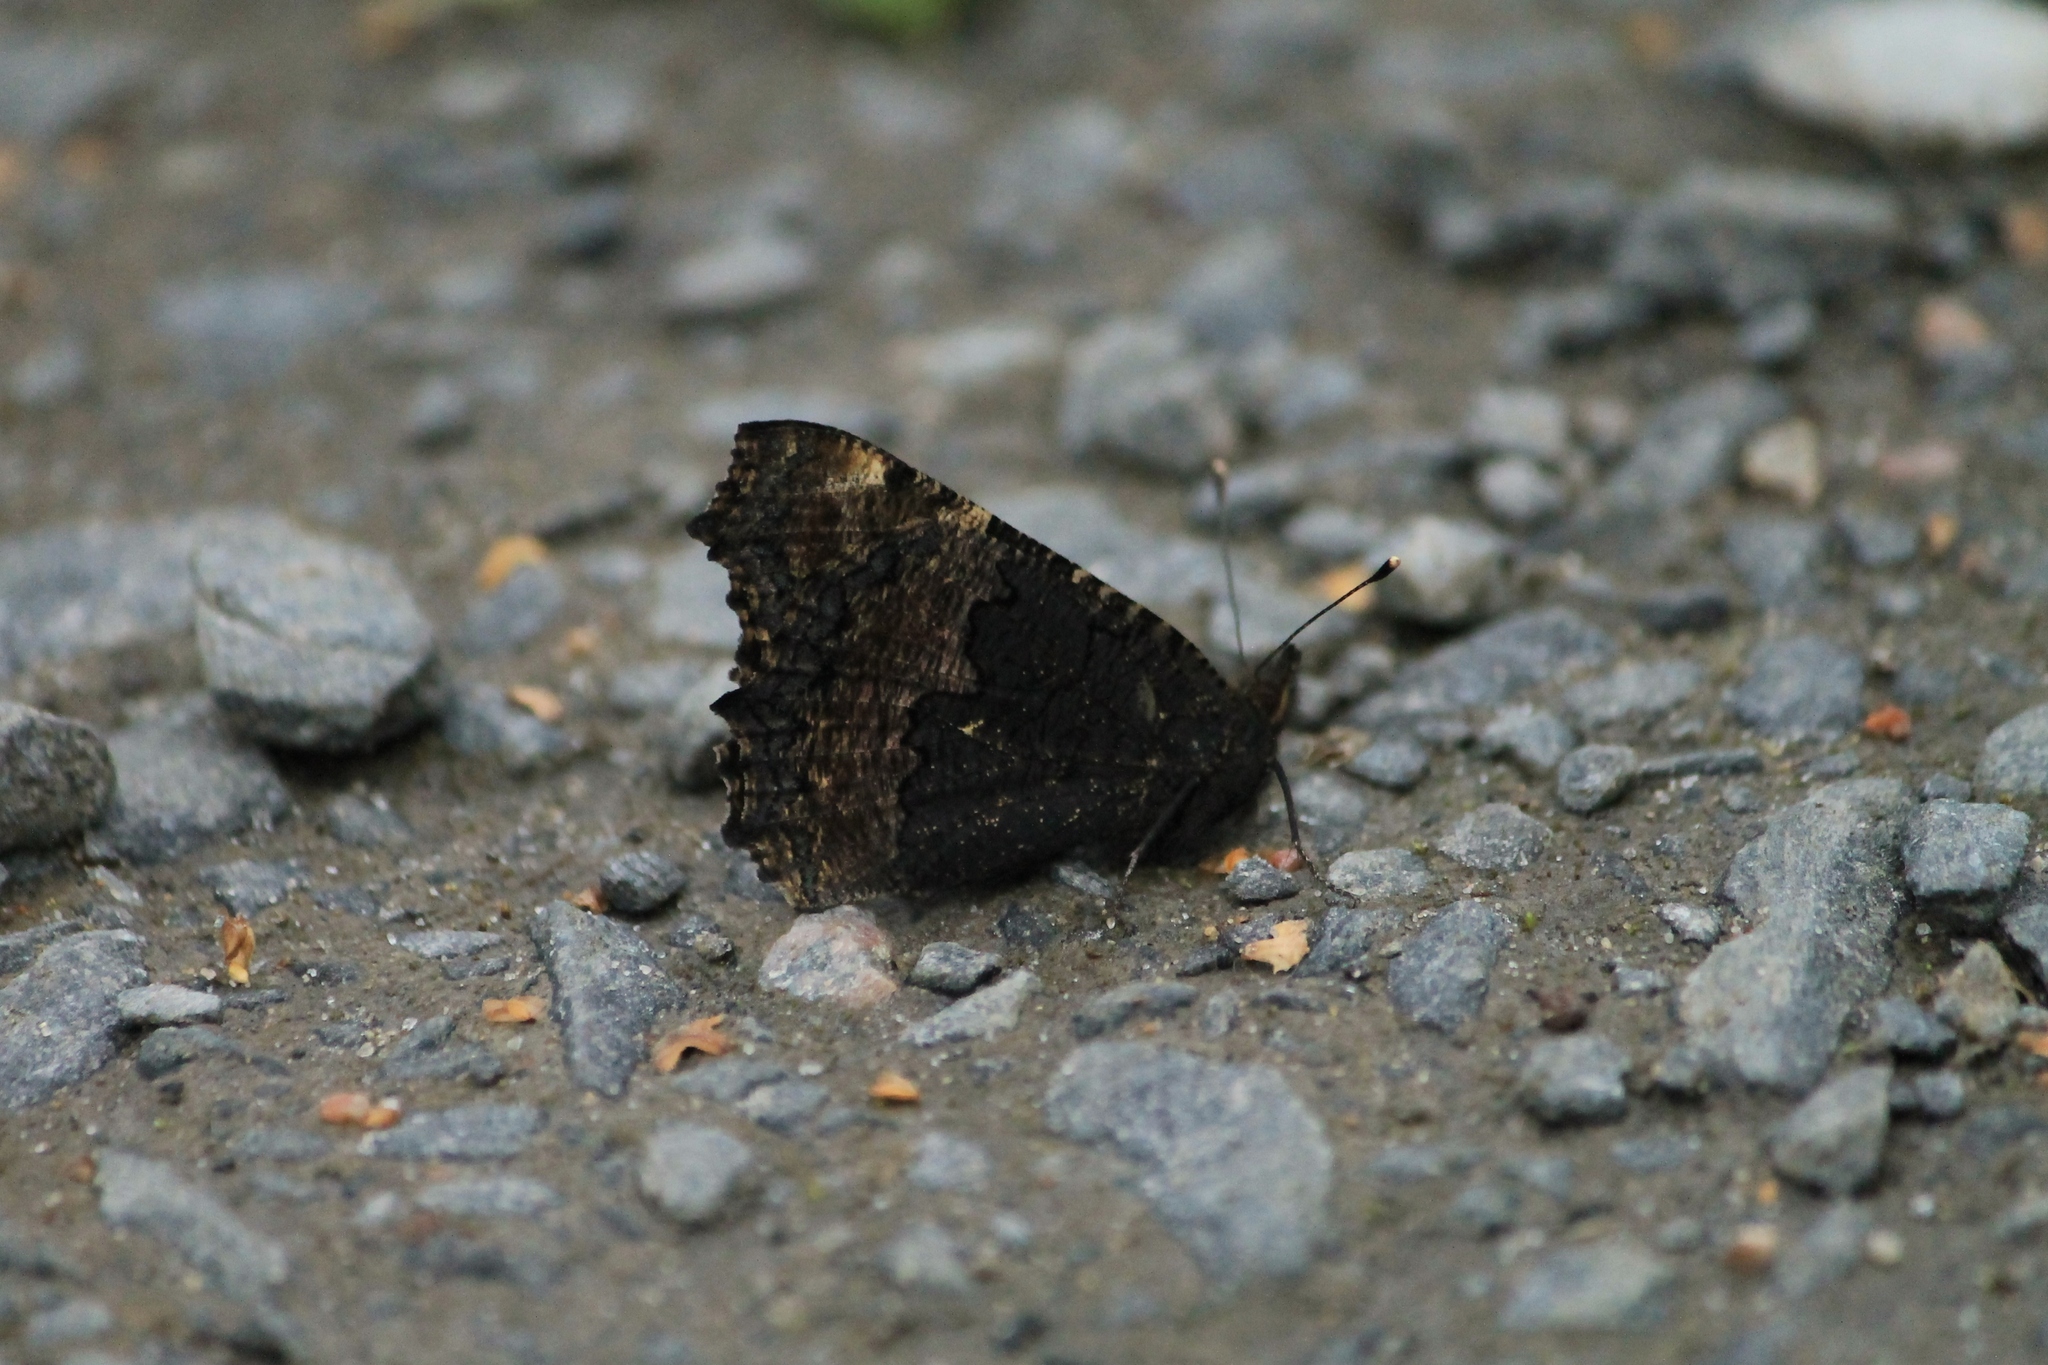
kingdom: Animalia
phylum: Arthropoda
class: Insecta
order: Lepidoptera
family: Nymphalidae
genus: Aglais
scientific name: Aglais urticae
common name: Small tortoiseshell
